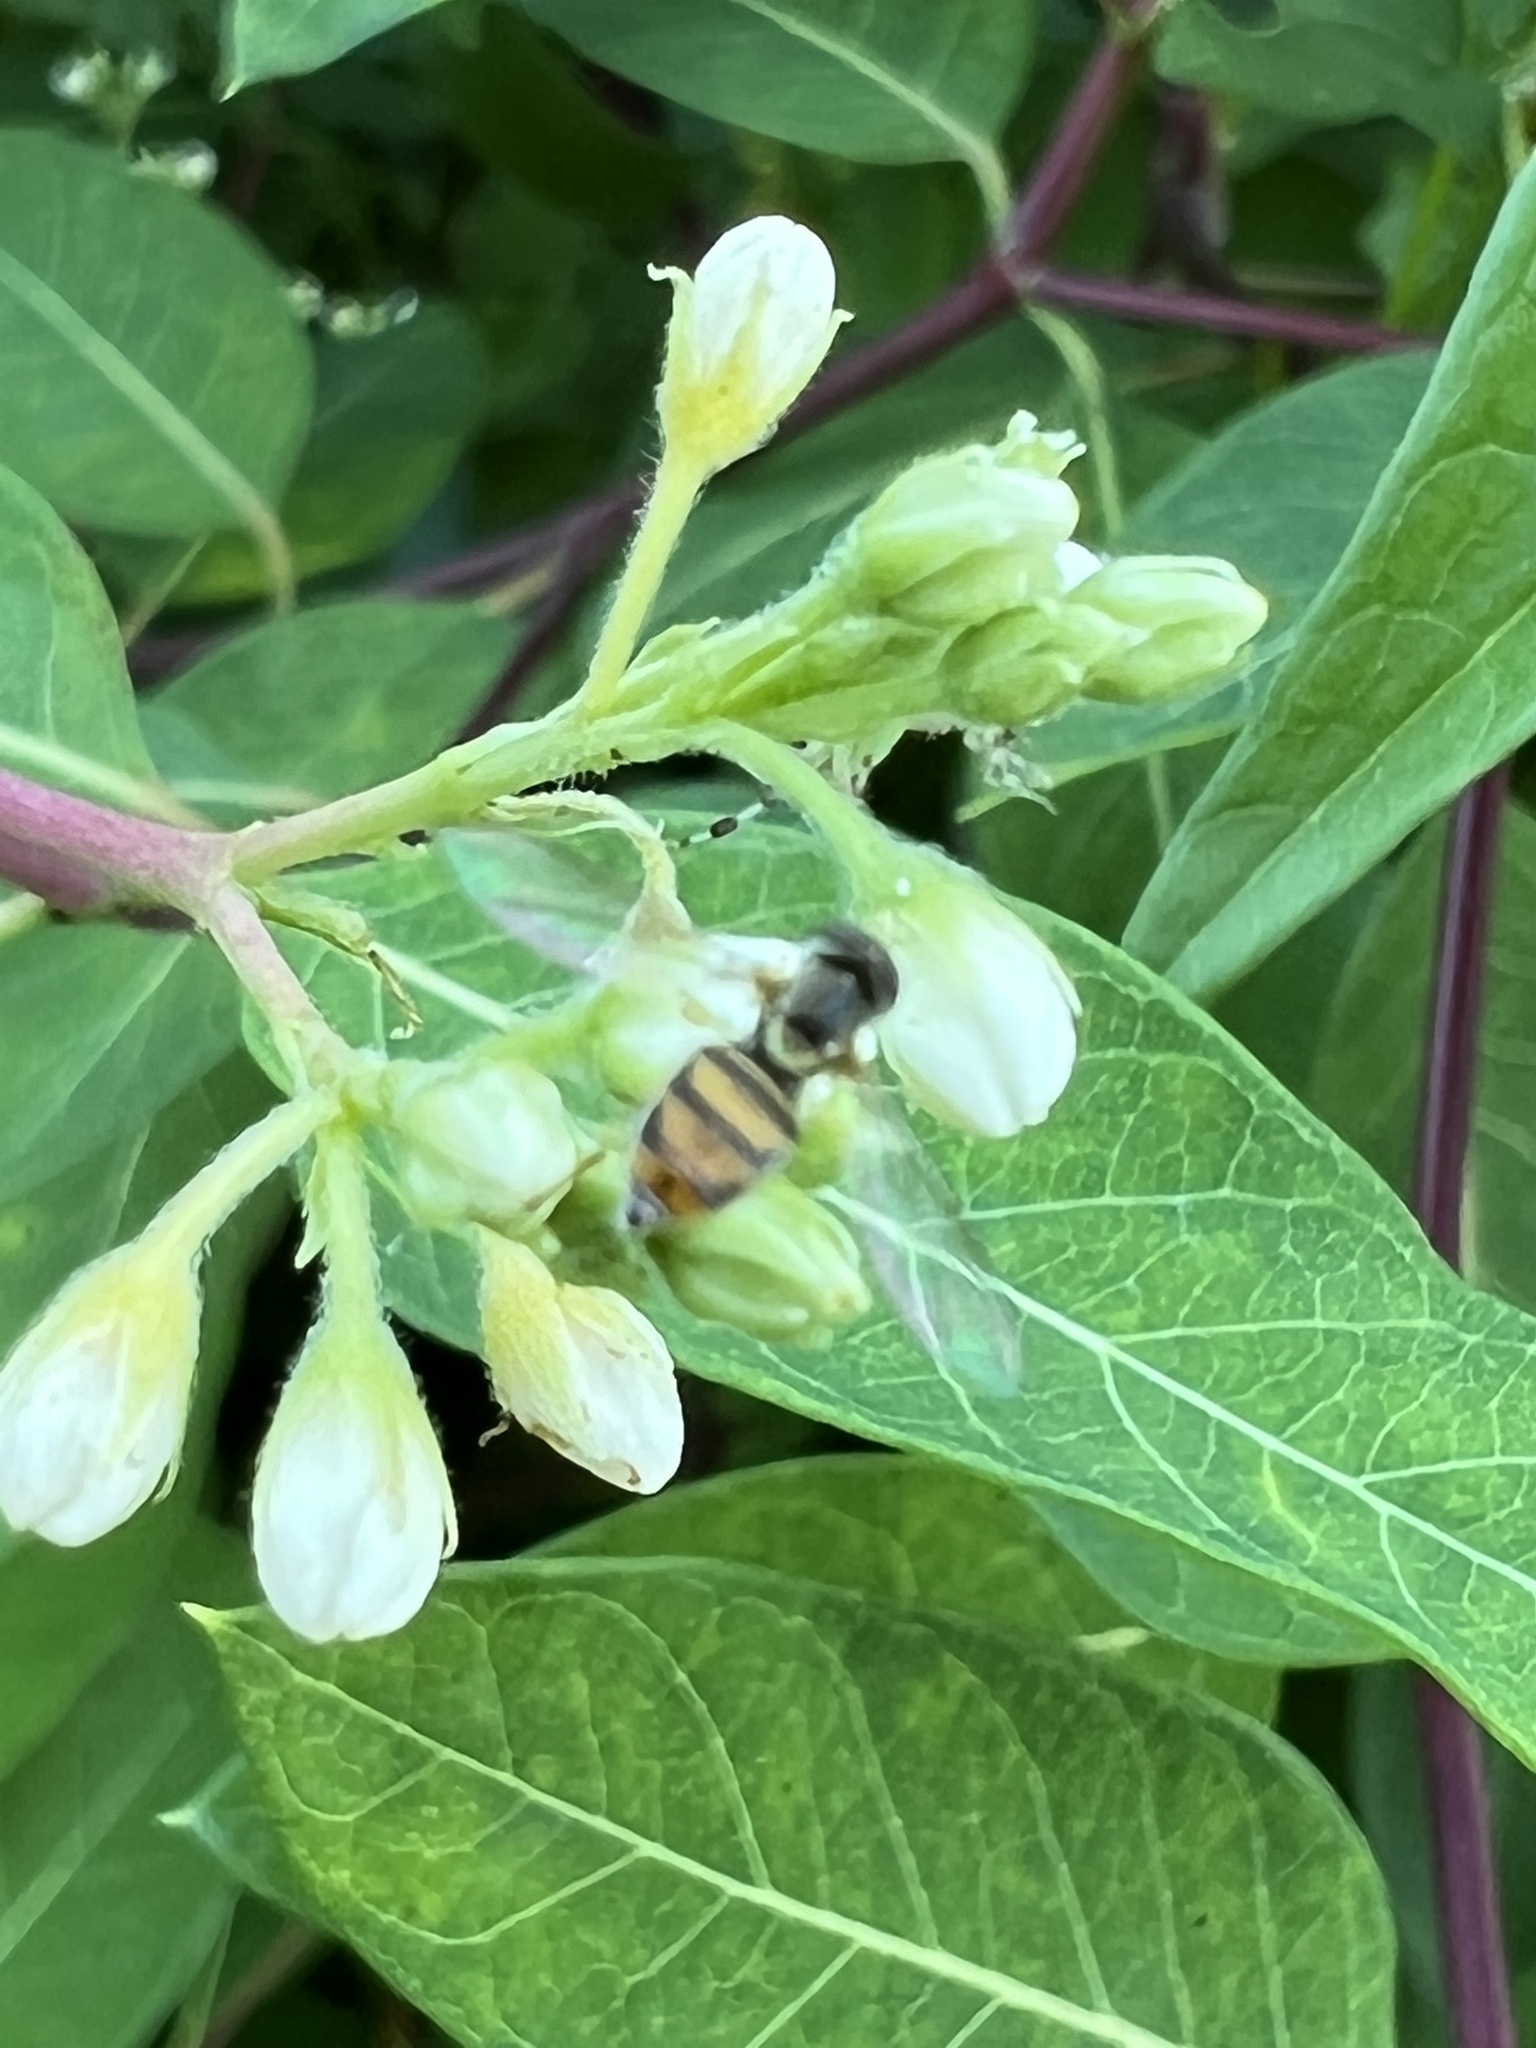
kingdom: Animalia
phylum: Arthropoda
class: Insecta
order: Diptera
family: Syrphidae
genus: Toxomerus
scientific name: Toxomerus marginatus
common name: Syrphid fly
